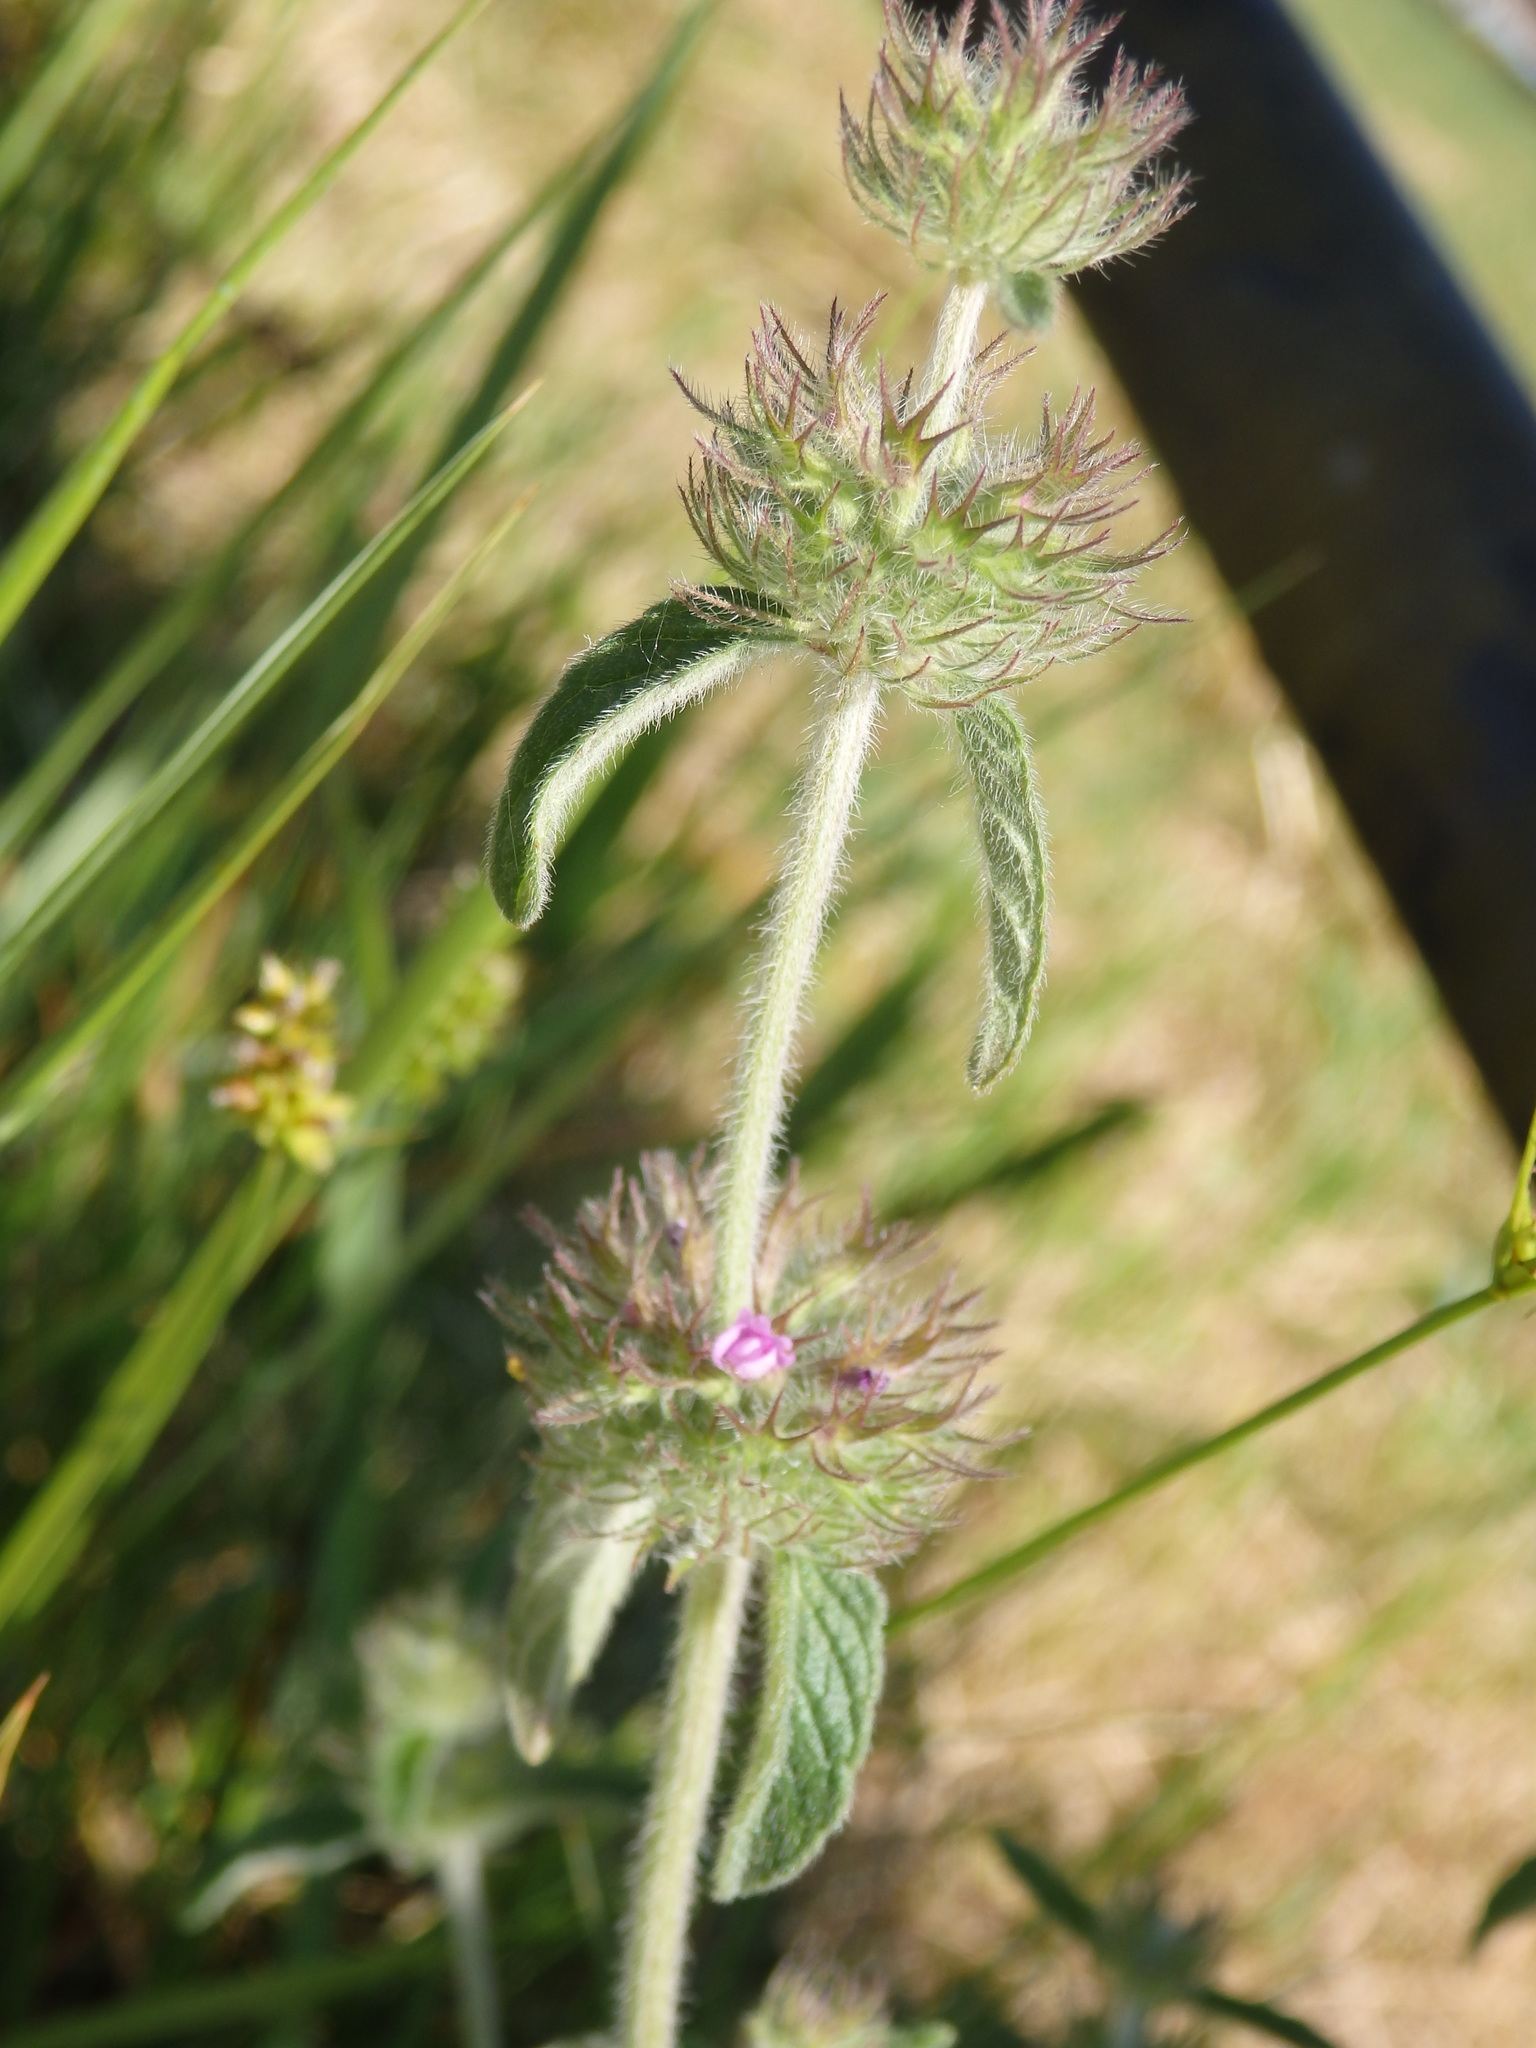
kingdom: Plantae
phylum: Tracheophyta
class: Magnoliopsida
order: Lamiales
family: Lamiaceae
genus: Clinopodium
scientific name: Clinopodium vulgare
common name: Wild basil
